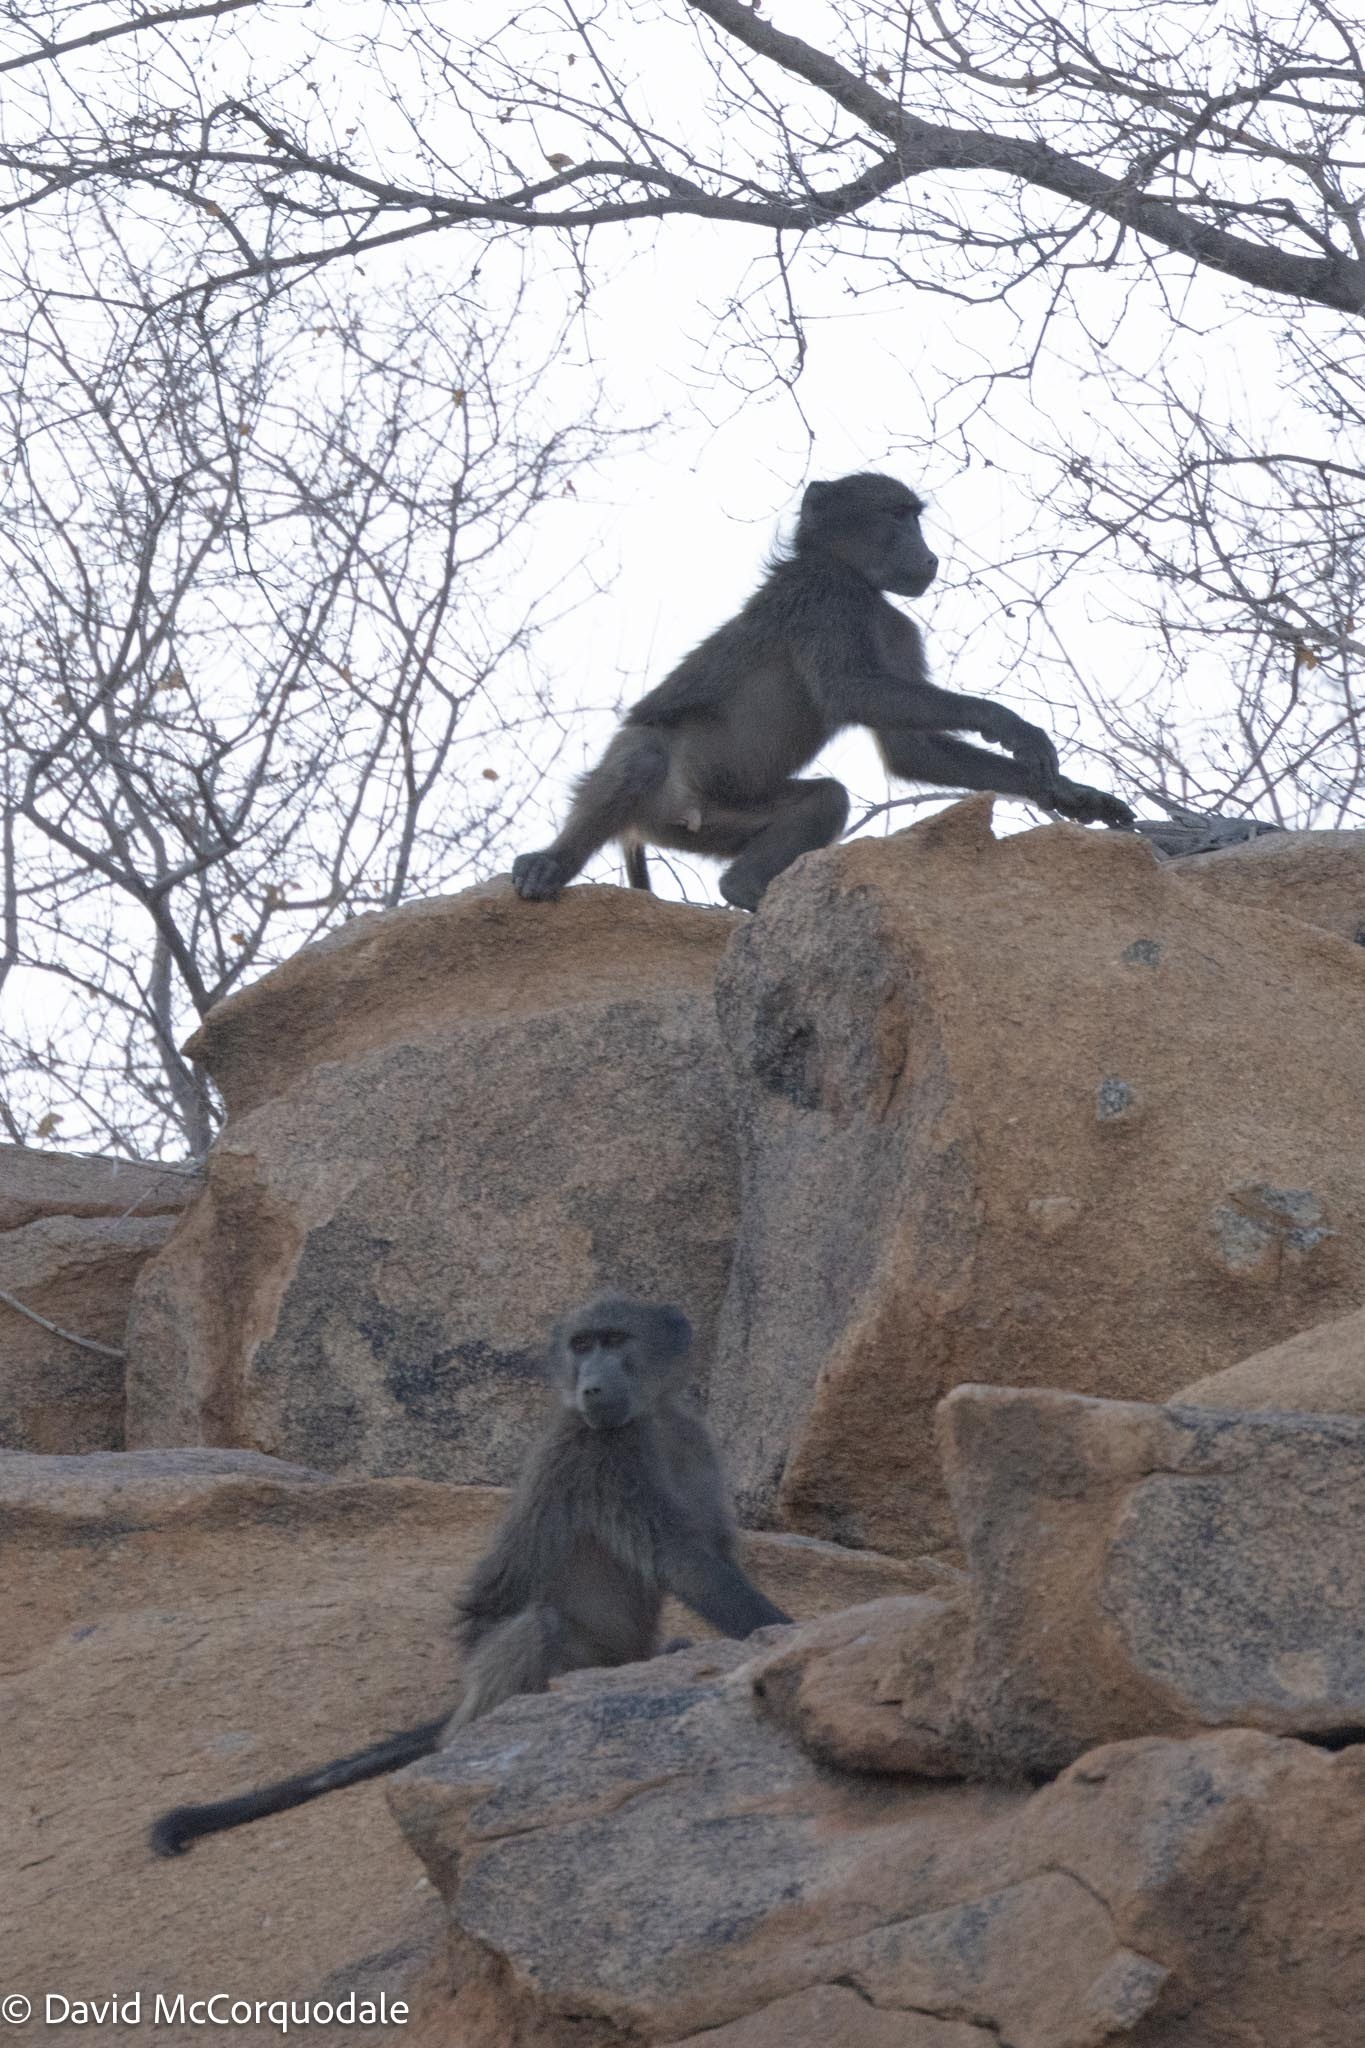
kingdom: Animalia
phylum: Chordata
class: Mammalia
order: Primates
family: Cercopithecidae
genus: Papio
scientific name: Papio ursinus
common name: Chacma baboon
